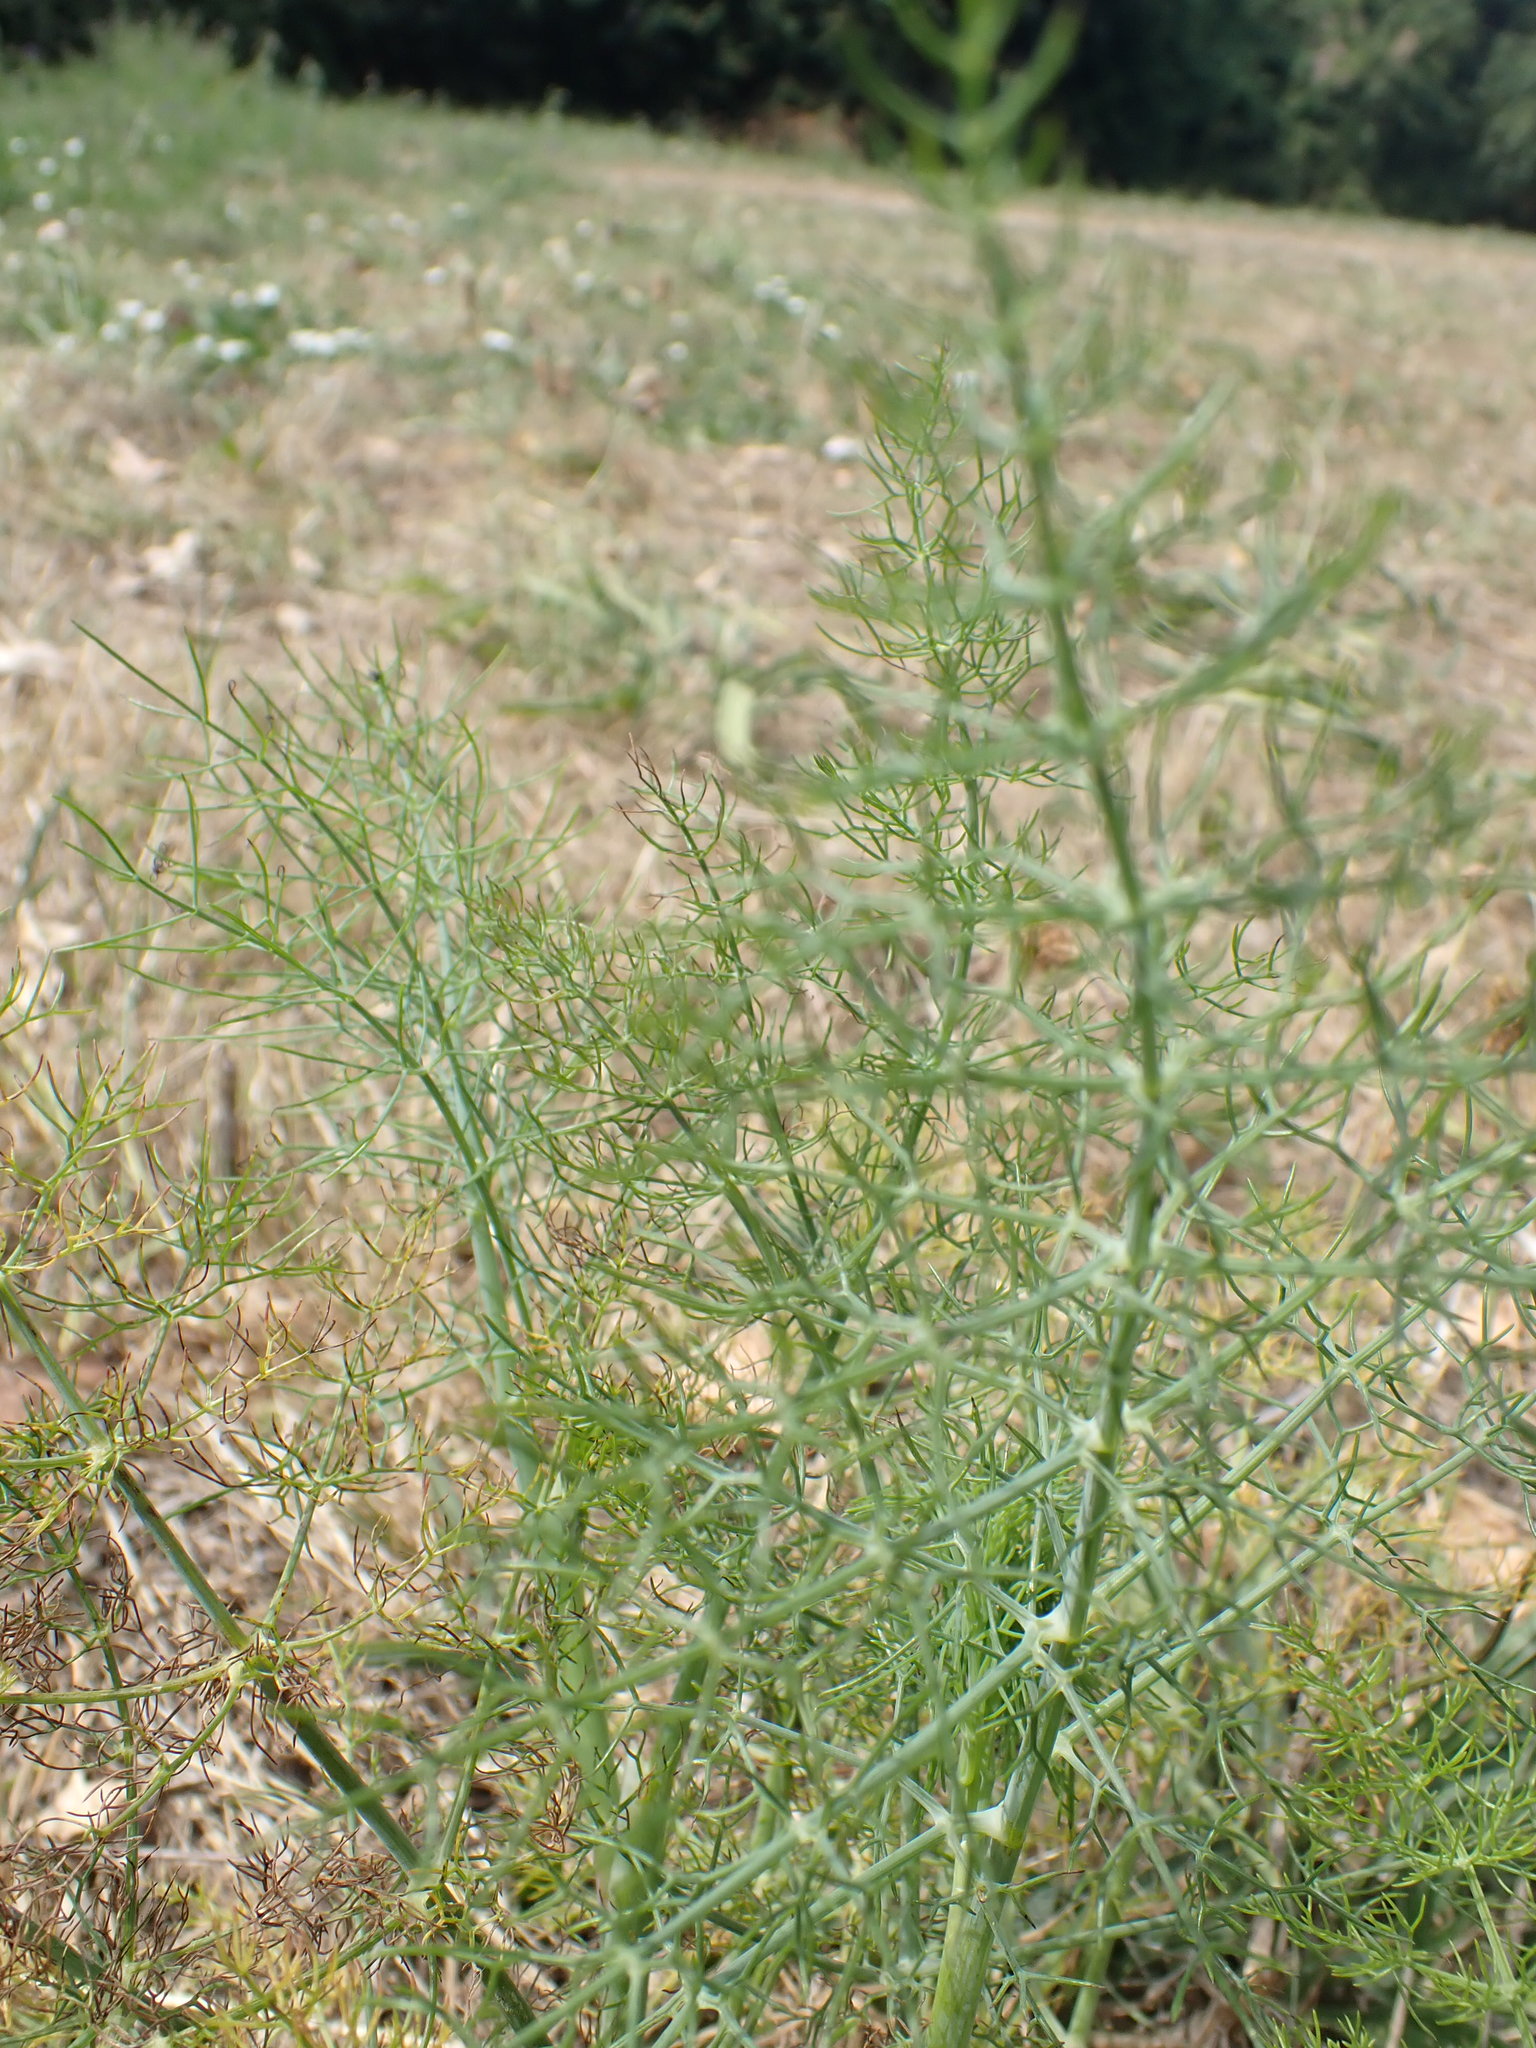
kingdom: Plantae
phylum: Tracheophyta
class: Magnoliopsida
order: Apiales
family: Apiaceae
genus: Foeniculum
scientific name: Foeniculum vulgare
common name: Fennel
